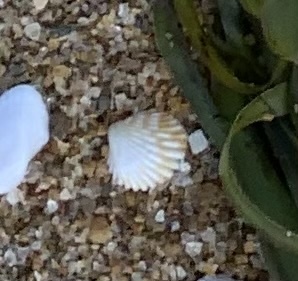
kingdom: Animalia
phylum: Mollusca
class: Bivalvia
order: Carditida
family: Carditidae
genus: Cardites
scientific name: Cardites bicolor
